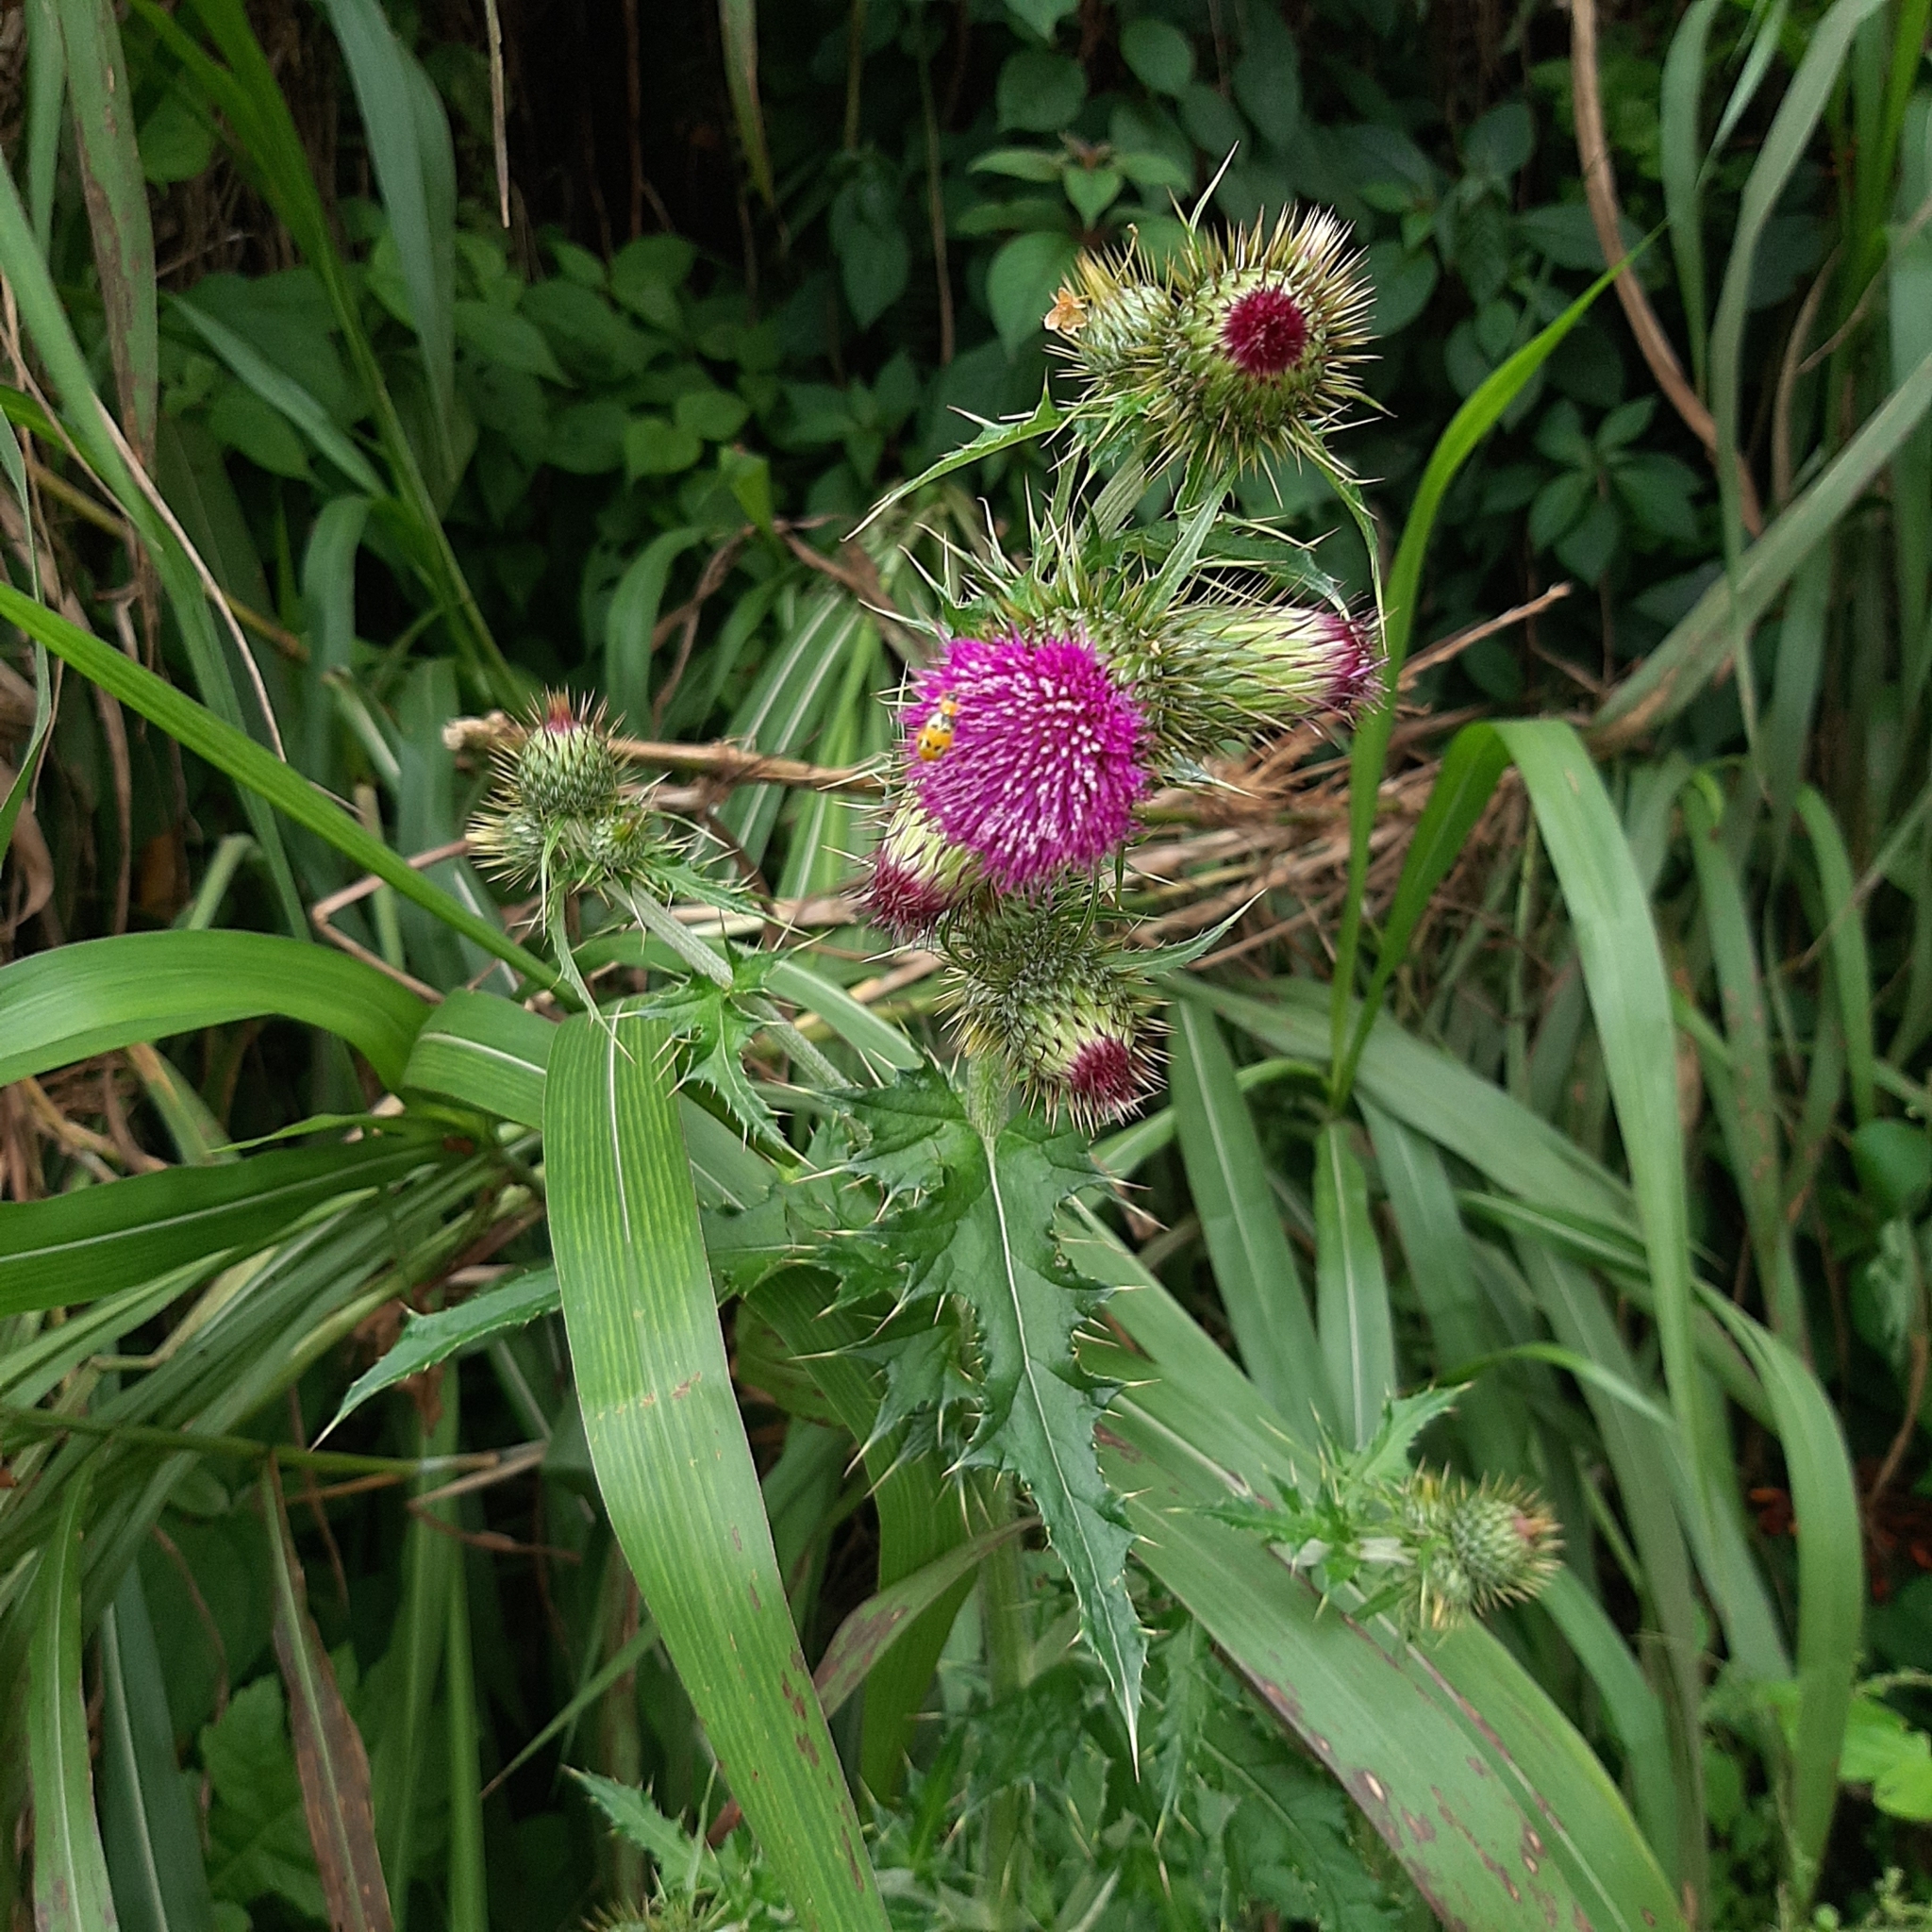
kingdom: Plantae
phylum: Tracheophyta
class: Magnoliopsida
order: Asterales
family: Asteraceae
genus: Cirsium
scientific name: Cirsium mexicanum
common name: Mexican thistle
